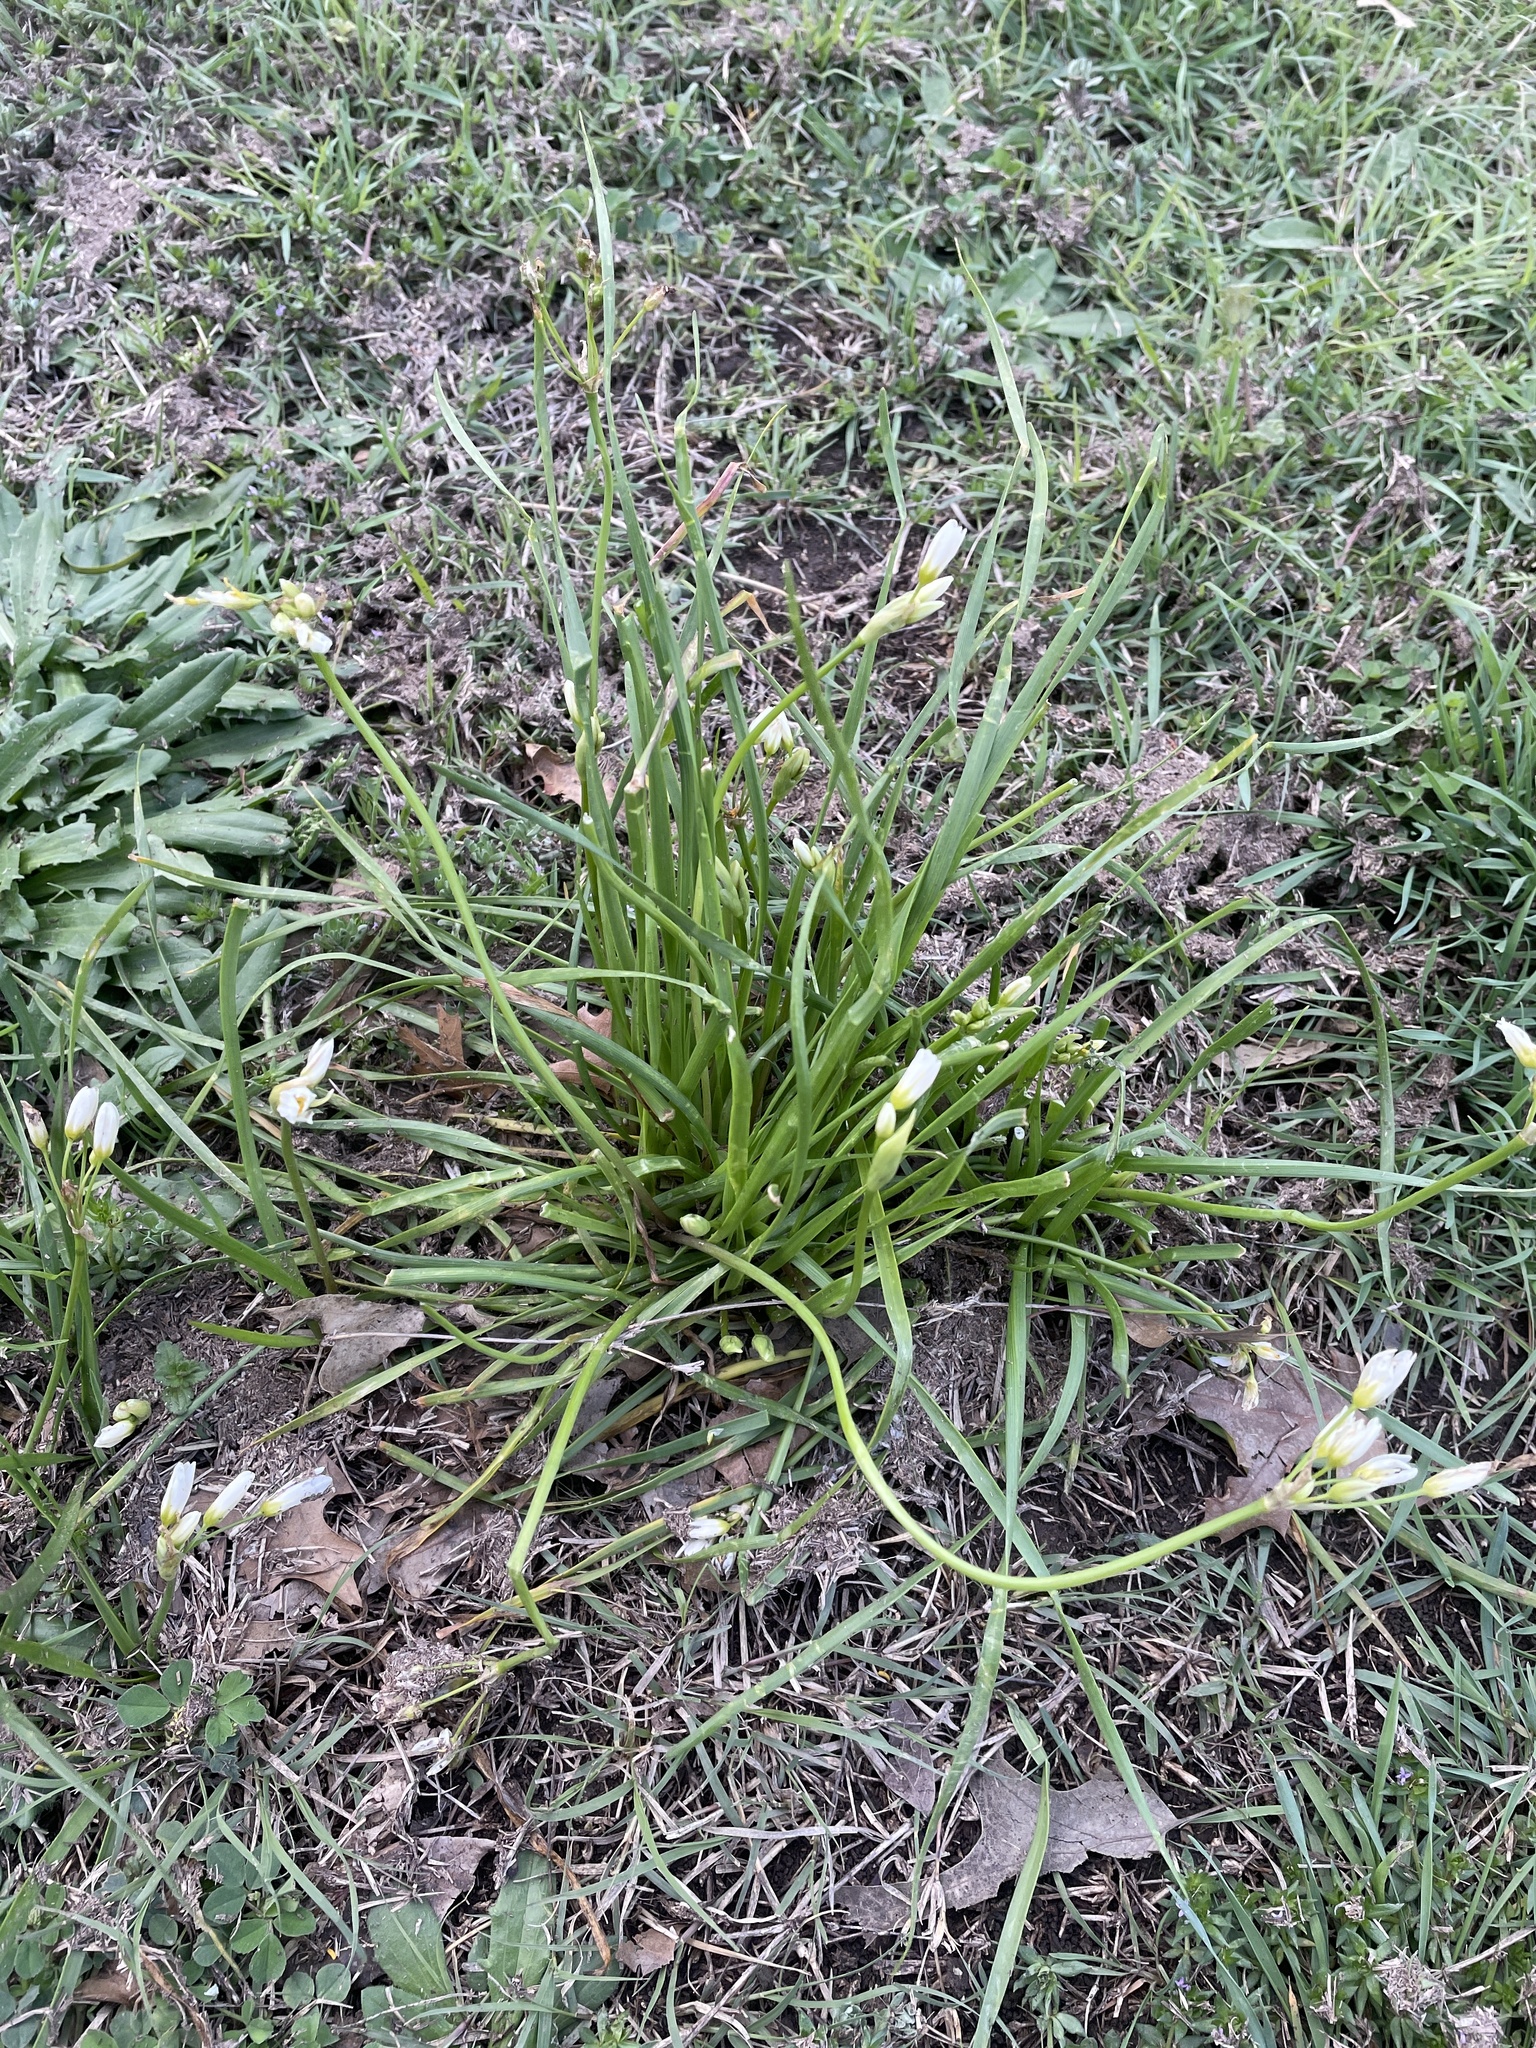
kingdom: Plantae
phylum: Tracheophyta
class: Liliopsida
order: Asparagales
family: Amaryllidaceae
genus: Nothoscordum
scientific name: Nothoscordum bivalve
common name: Crow-poison
